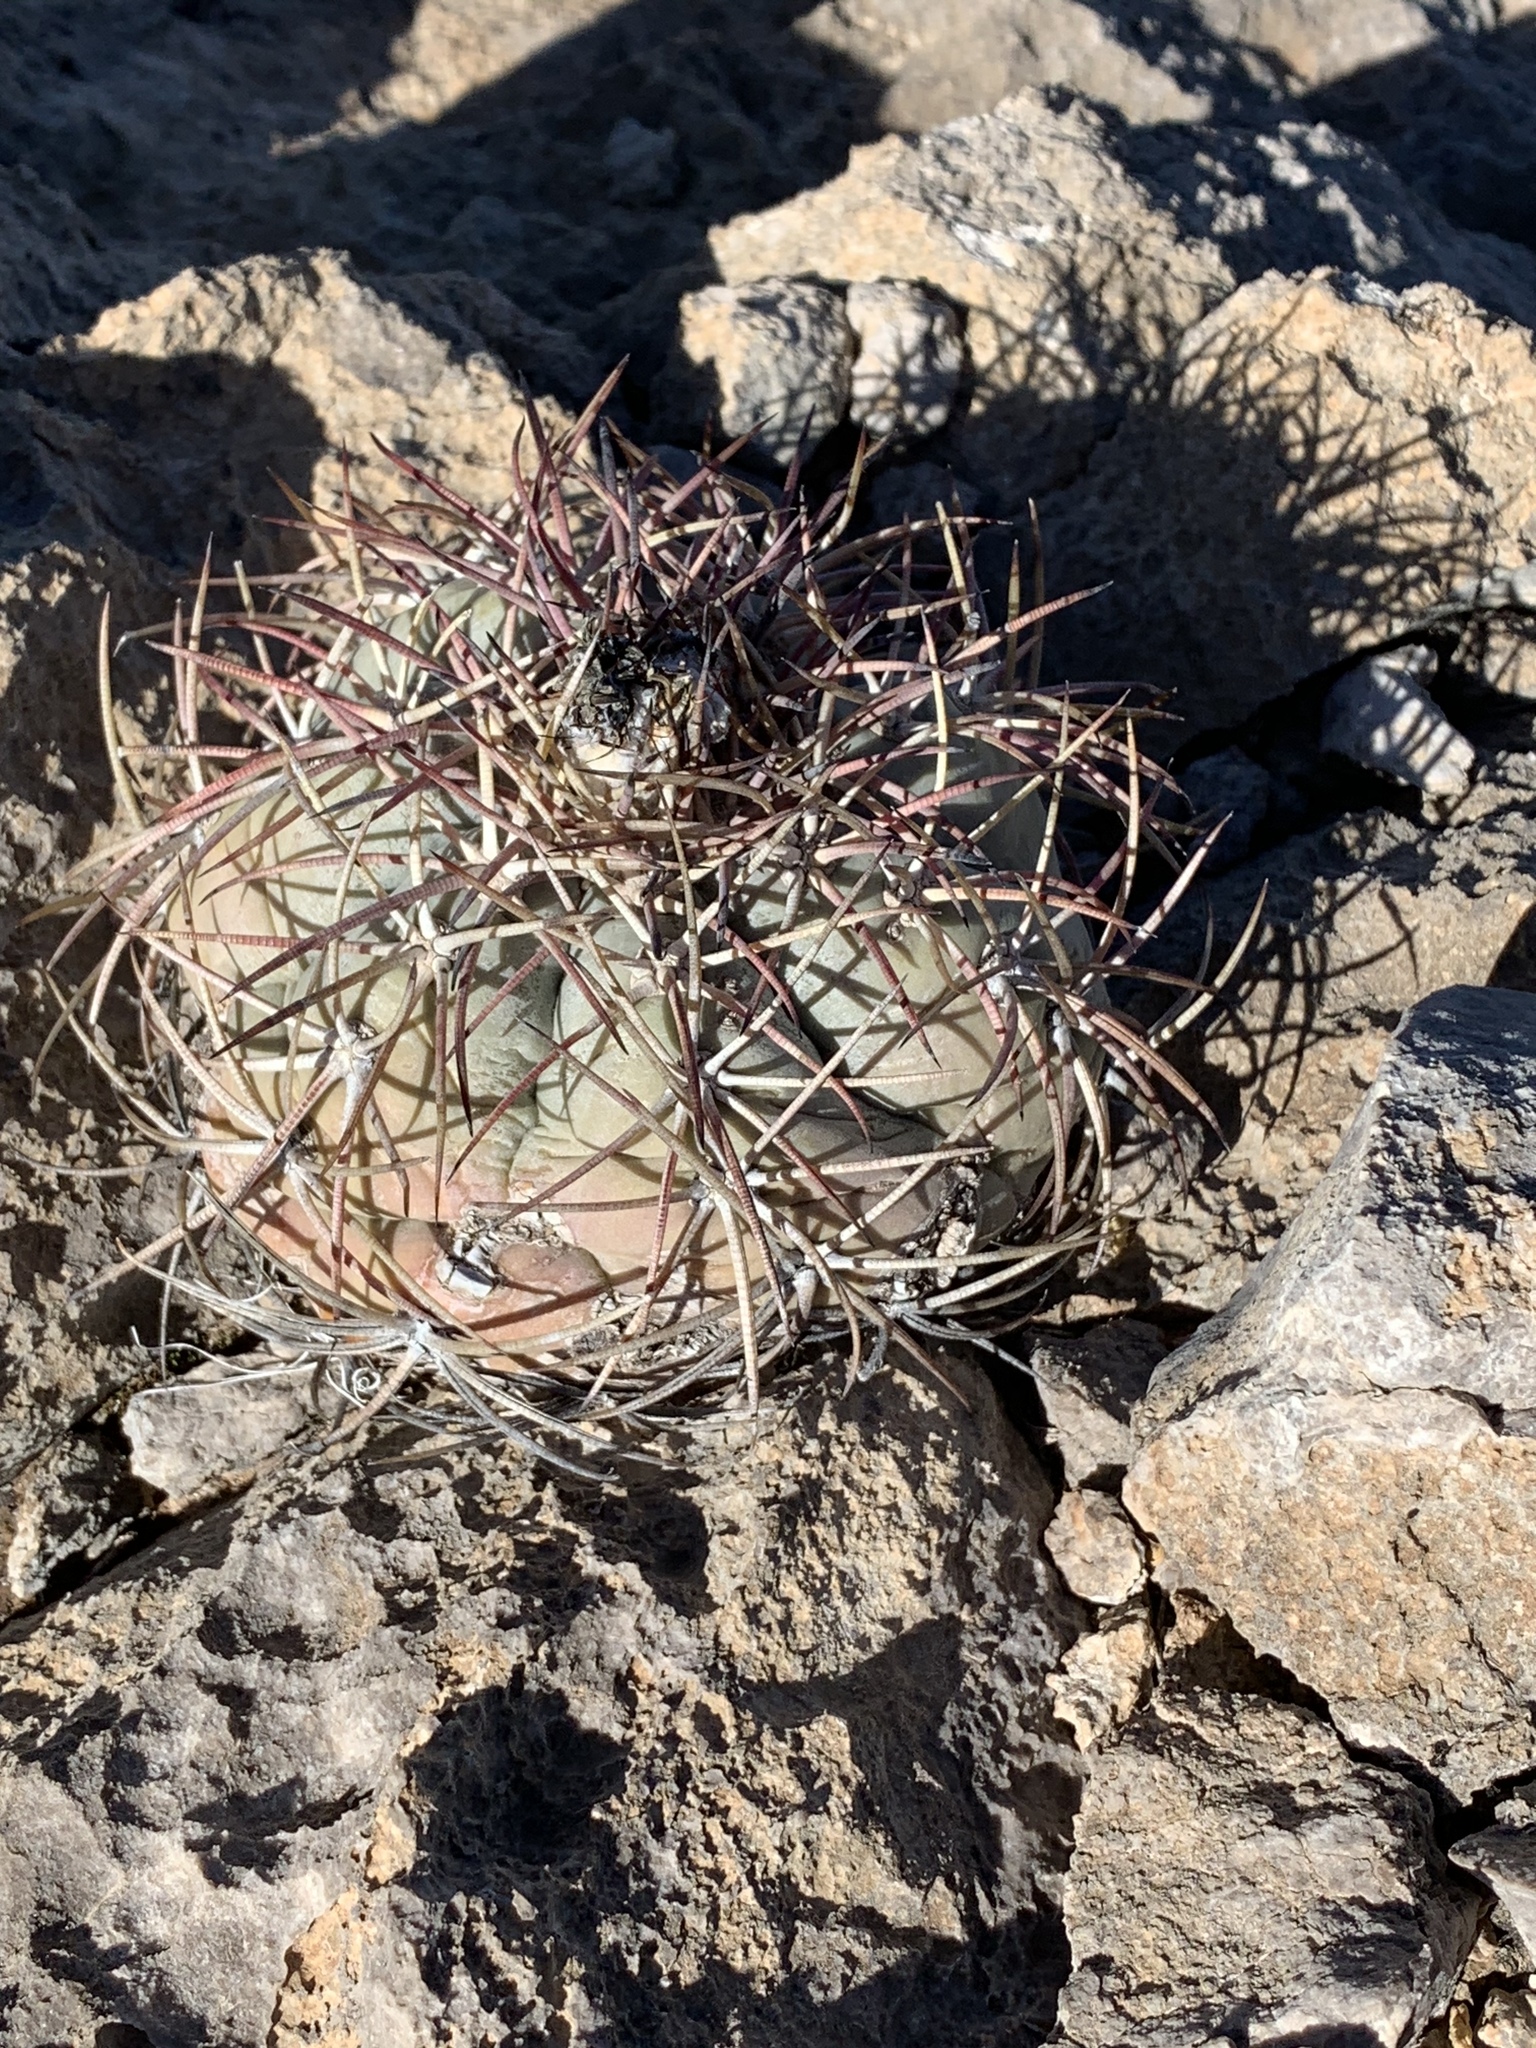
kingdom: Plantae
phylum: Tracheophyta
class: Magnoliopsida
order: Caryophyllales
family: Cactaceae
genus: Echinocactus
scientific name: Echinocactus horizonthalonius
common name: Devilshead
